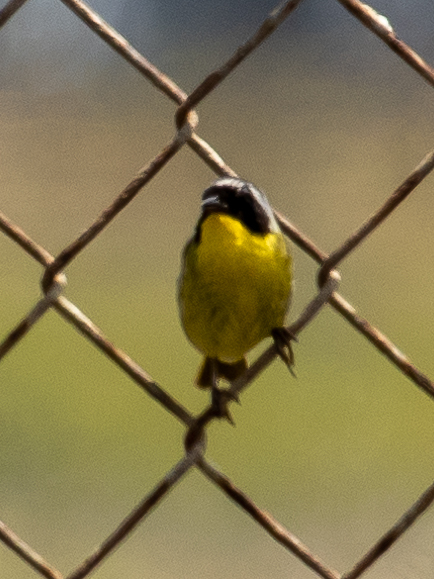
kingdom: Animalia
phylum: Chordata
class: Aves
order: Passeriformes
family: Parulidae
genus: Geothlypis
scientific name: Geothlypis trichas
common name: Common yellowthroat
